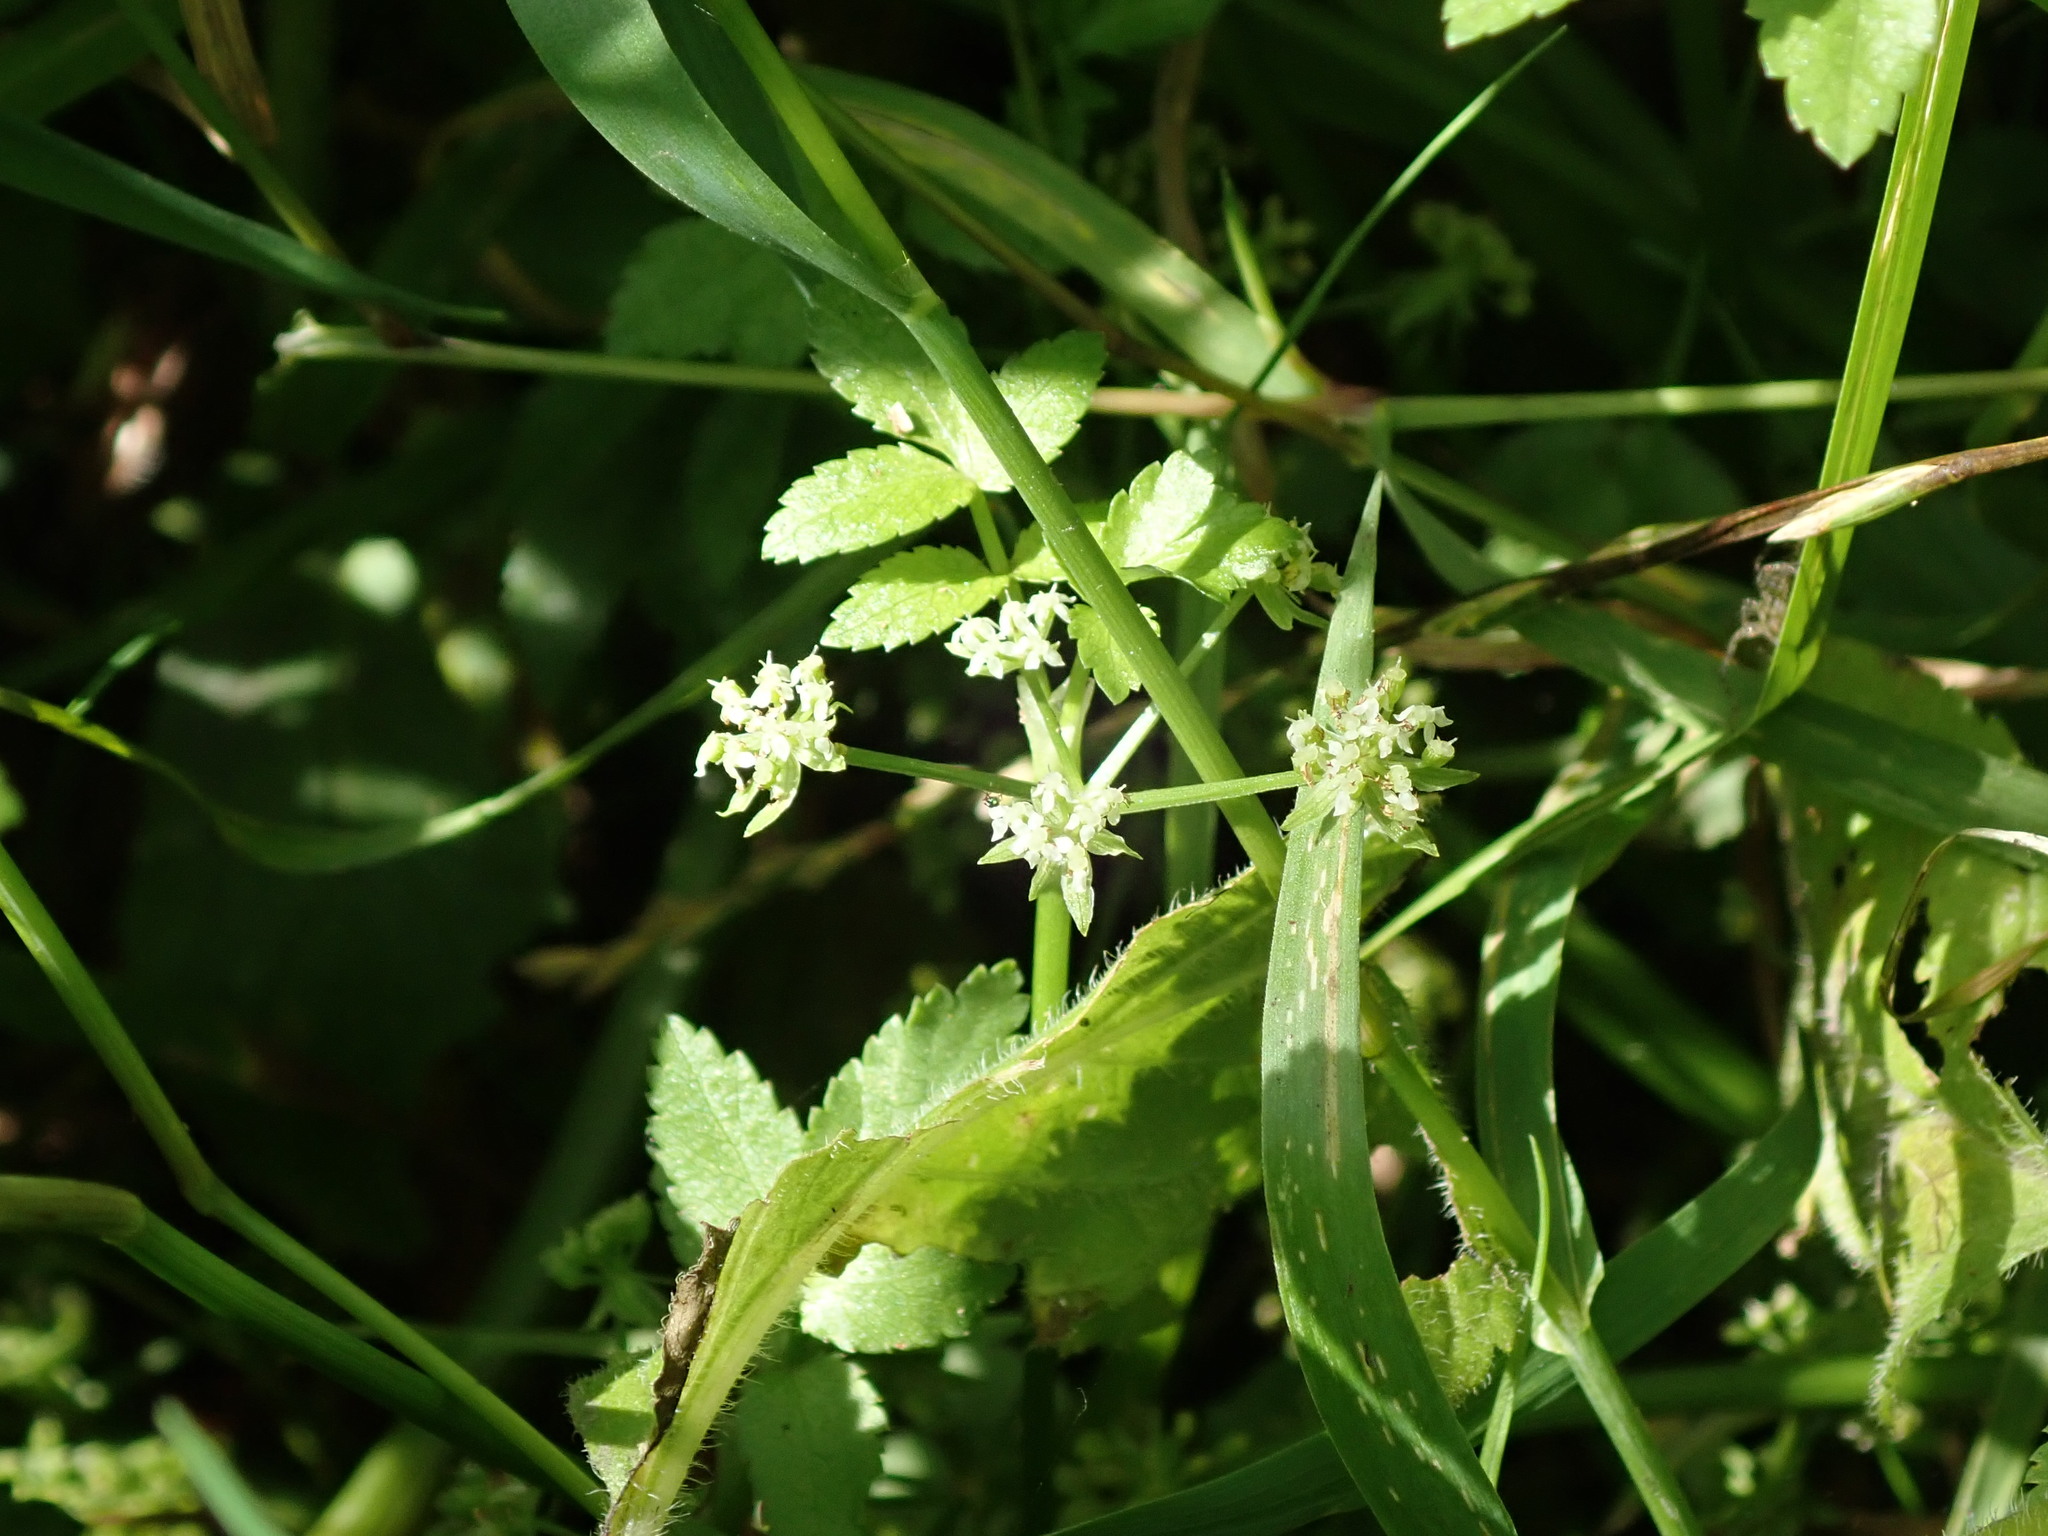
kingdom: Plantae
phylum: Tracheophyta
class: Magnoliopsida
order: Apiales
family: Apiaceae
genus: Helosciadium
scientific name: Helosciadium nodiflorum
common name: Fool's-watercress
